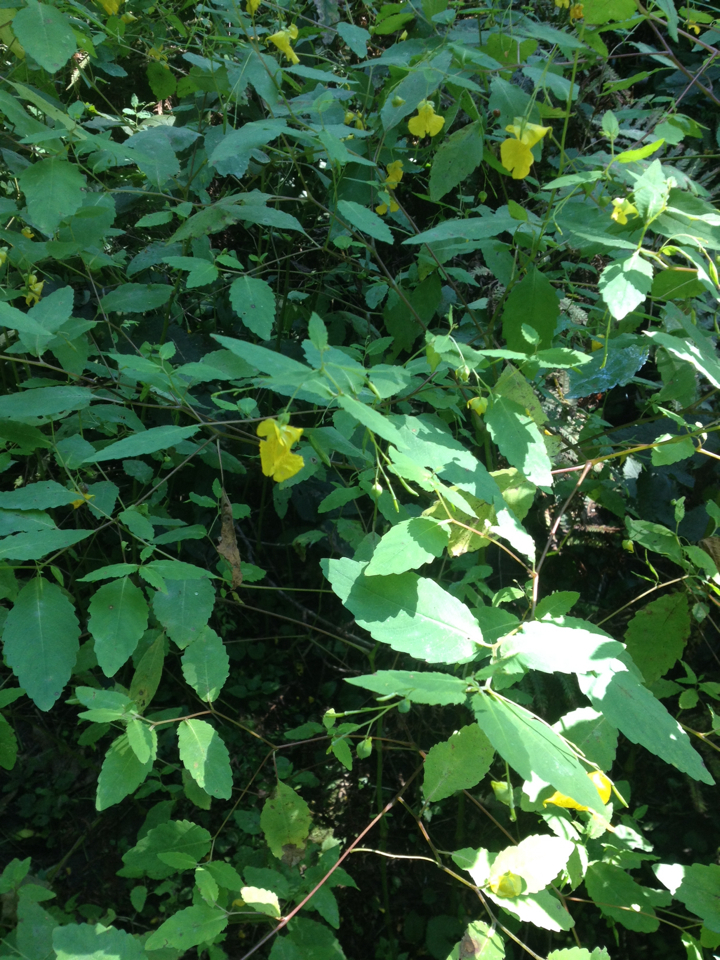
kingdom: Plantae
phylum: Tracheophyta
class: Magnoliopsida
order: Ericales
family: Balsaminaceae
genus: Impatiens
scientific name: Impatiens pallida
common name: Pale snapweed
